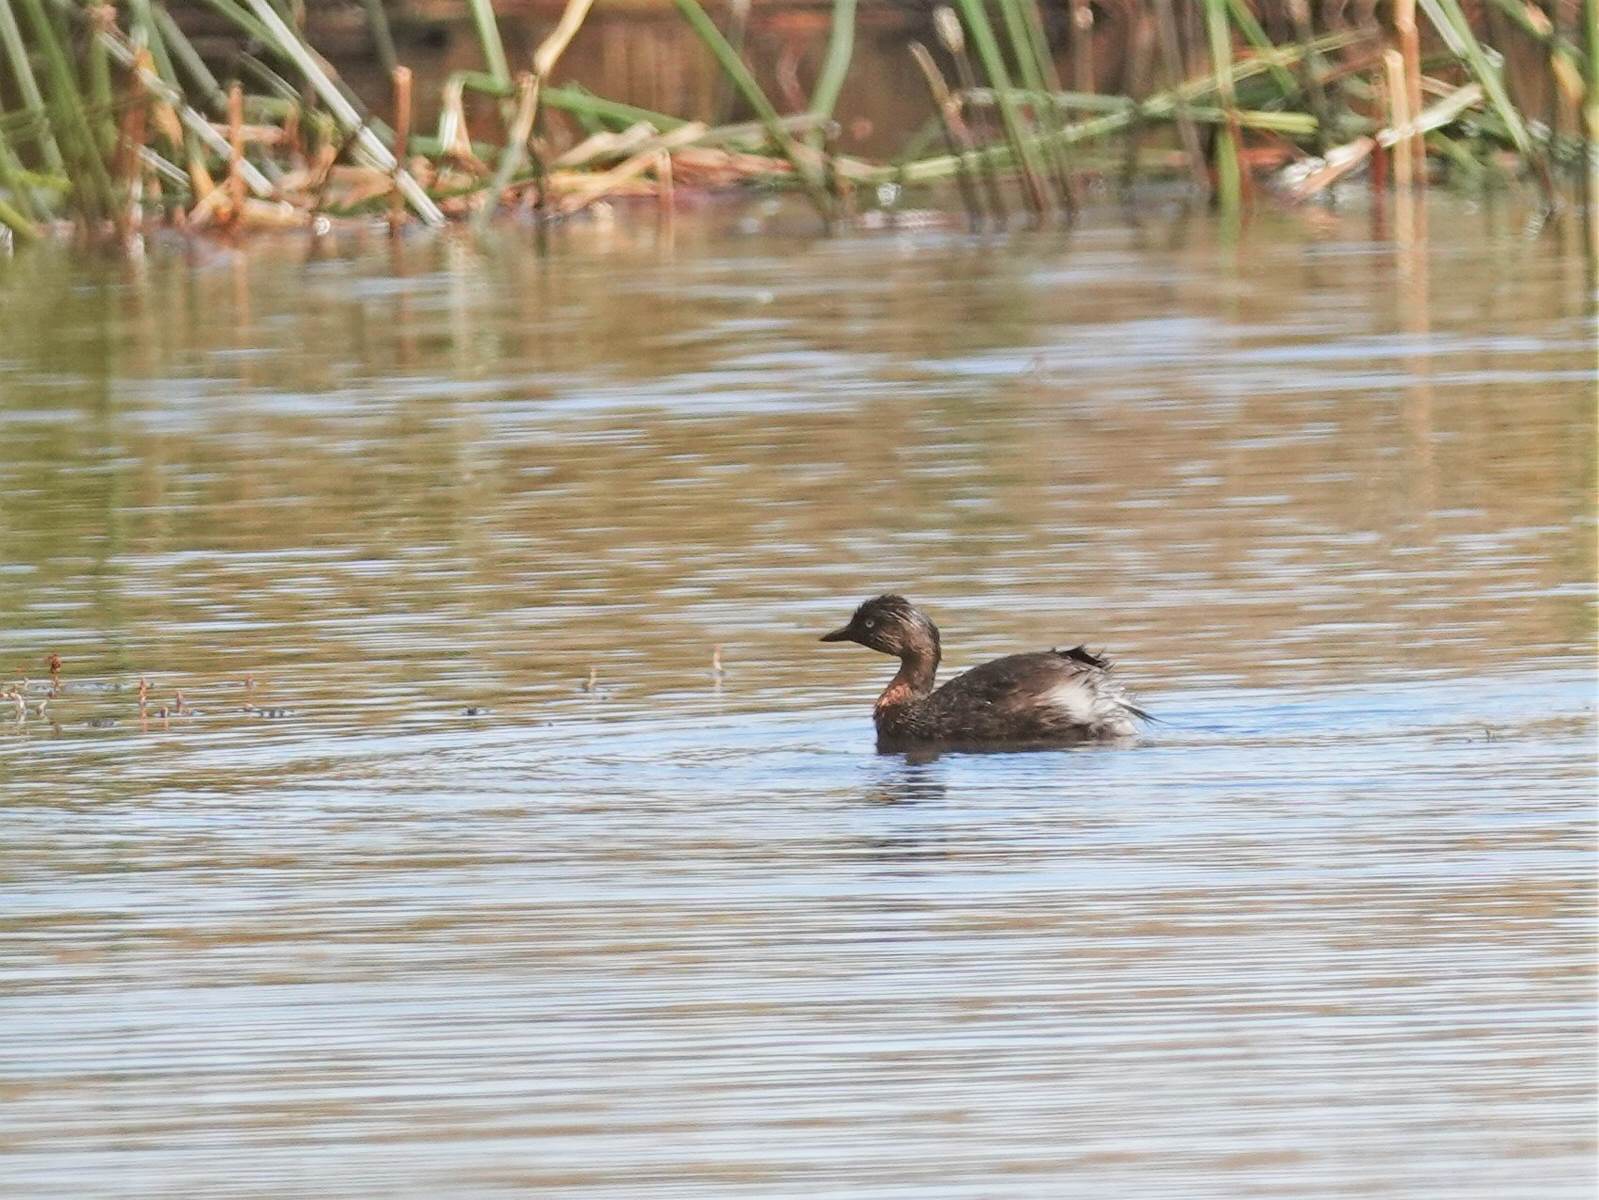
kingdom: Animalia
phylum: Chordata
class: Aves
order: Podicipediformes
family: Podicipedidae
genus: Poliocephalus
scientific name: Poliocephalus rufopectus
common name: New zealand grebe
